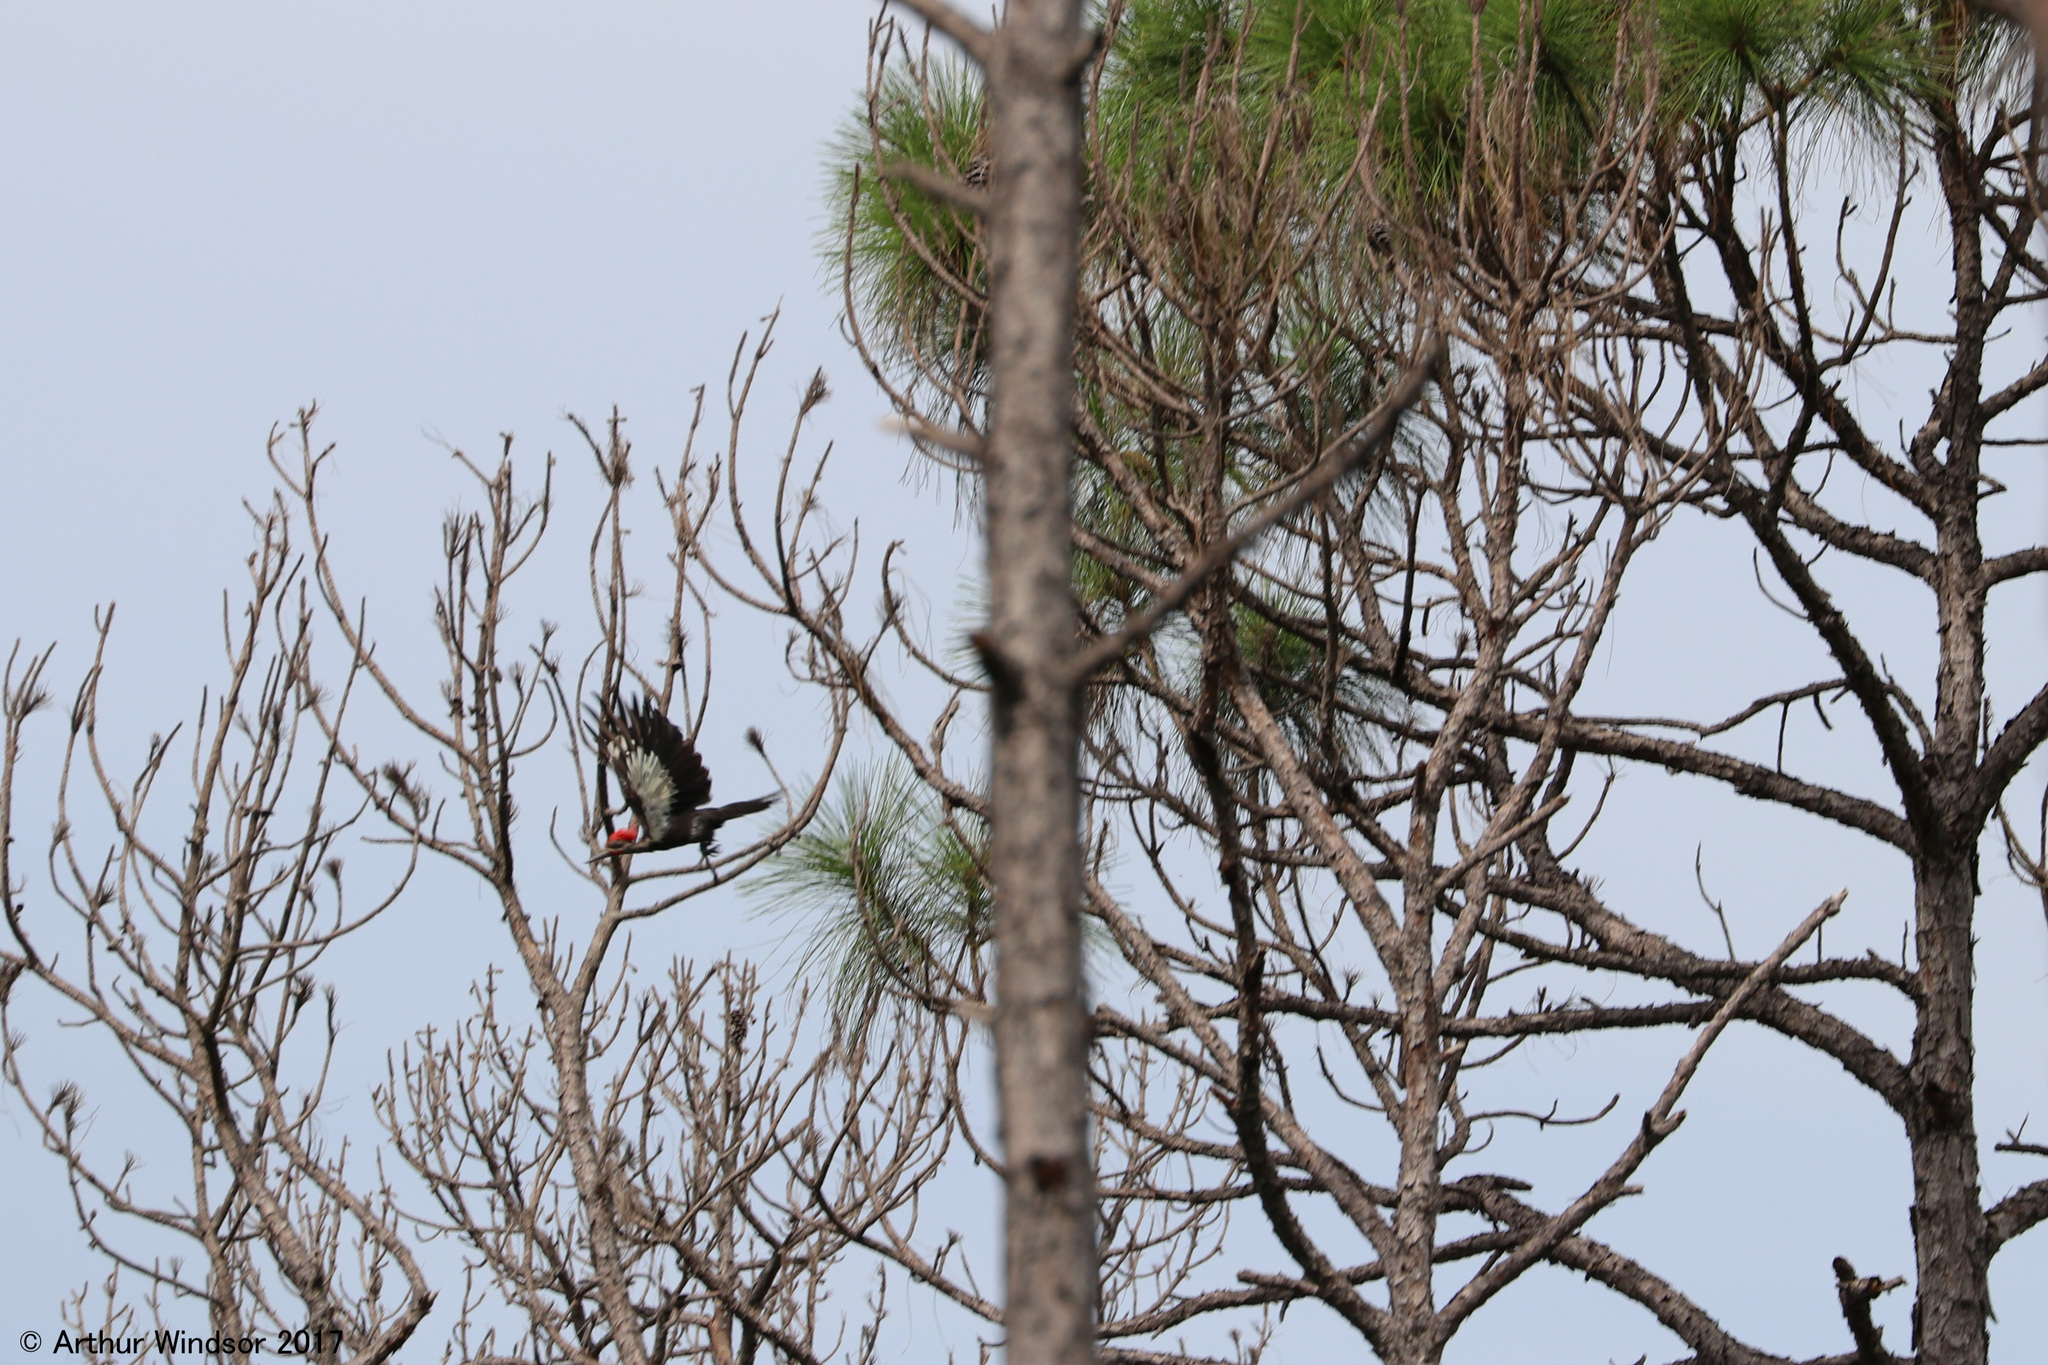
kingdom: Animalia
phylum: Chordata
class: Aves
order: Piciformes
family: Picidae
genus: Dryocopus
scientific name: Dryocopus pileatus
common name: Pileated woodpecker
